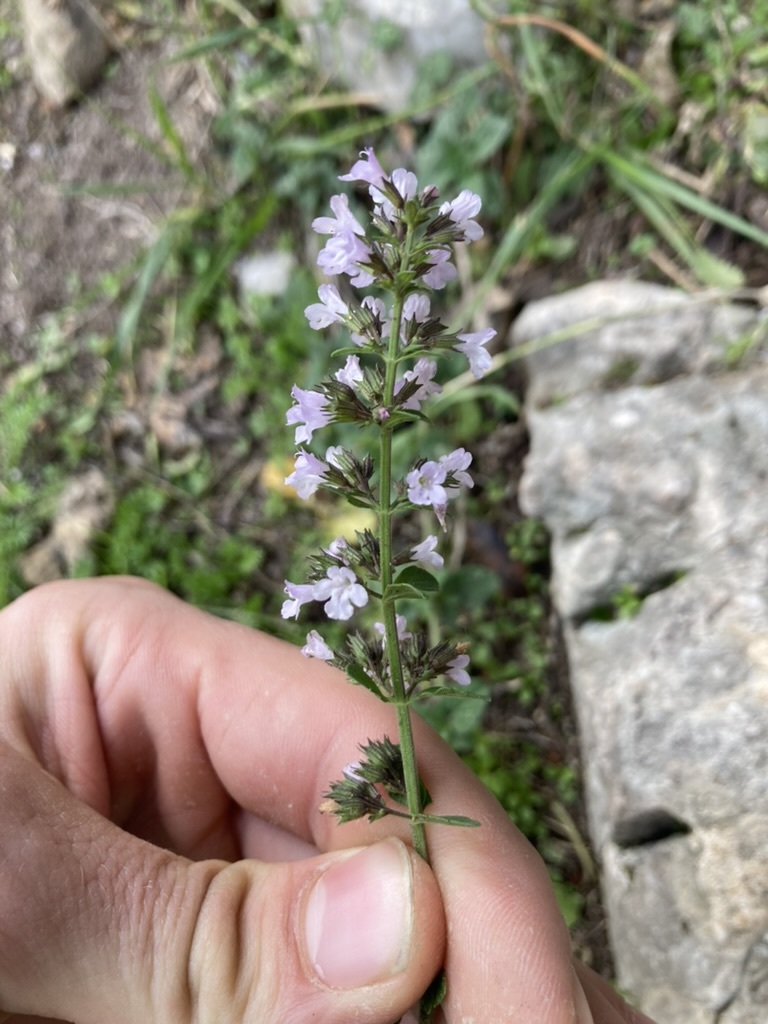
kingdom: Plantae
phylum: Tracheophyta
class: Magnoliopsida
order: Lamiales
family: Lamiaceae
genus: Clinopodium
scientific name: Clinopodium nepeta
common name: Lesser calamint
